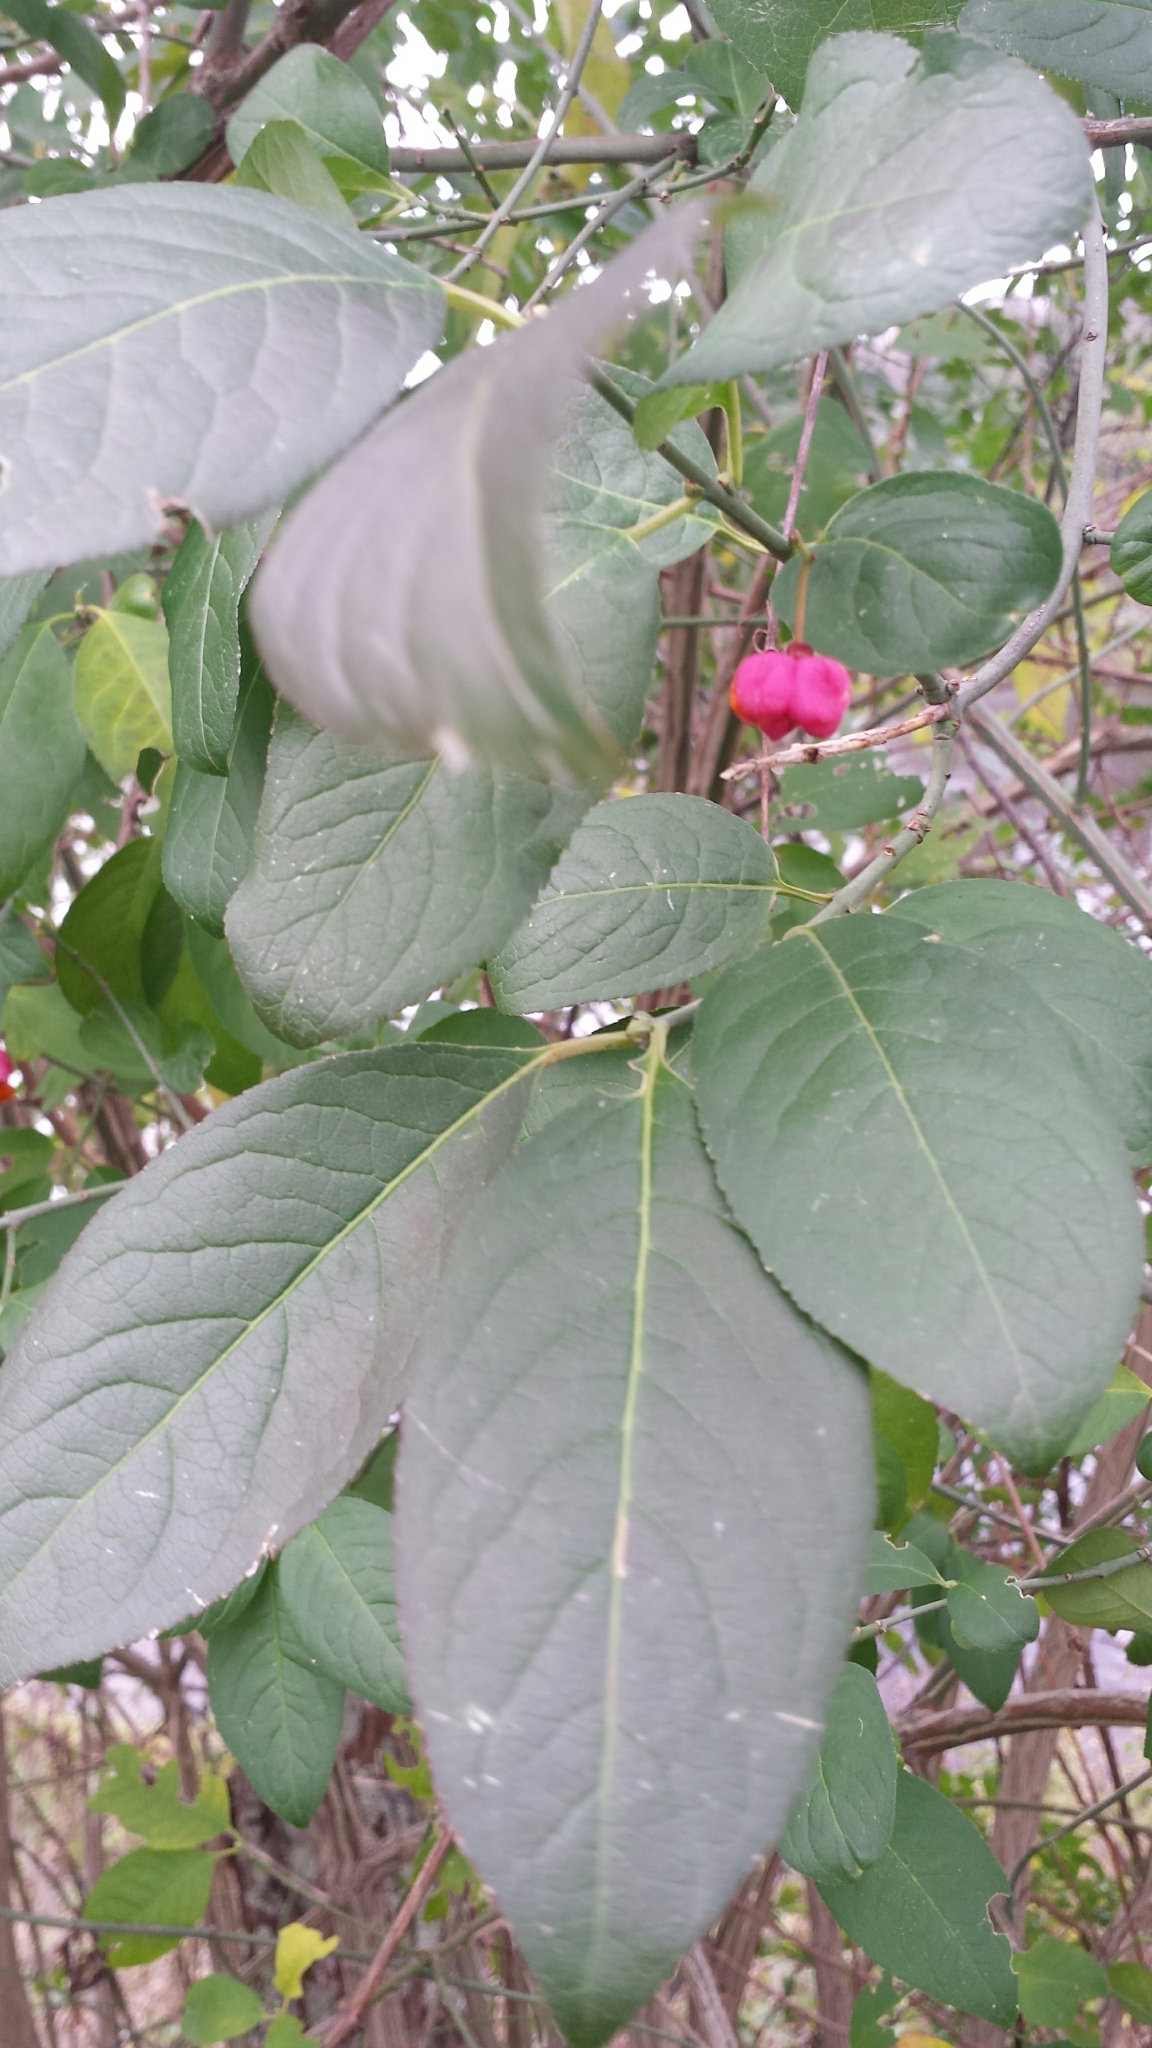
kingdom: Plantae
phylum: Tracheophyta
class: Magnoliopsida
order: Celastrales
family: Celastraceae
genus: Euonymus
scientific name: Euonymus europaeus
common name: Spindle
